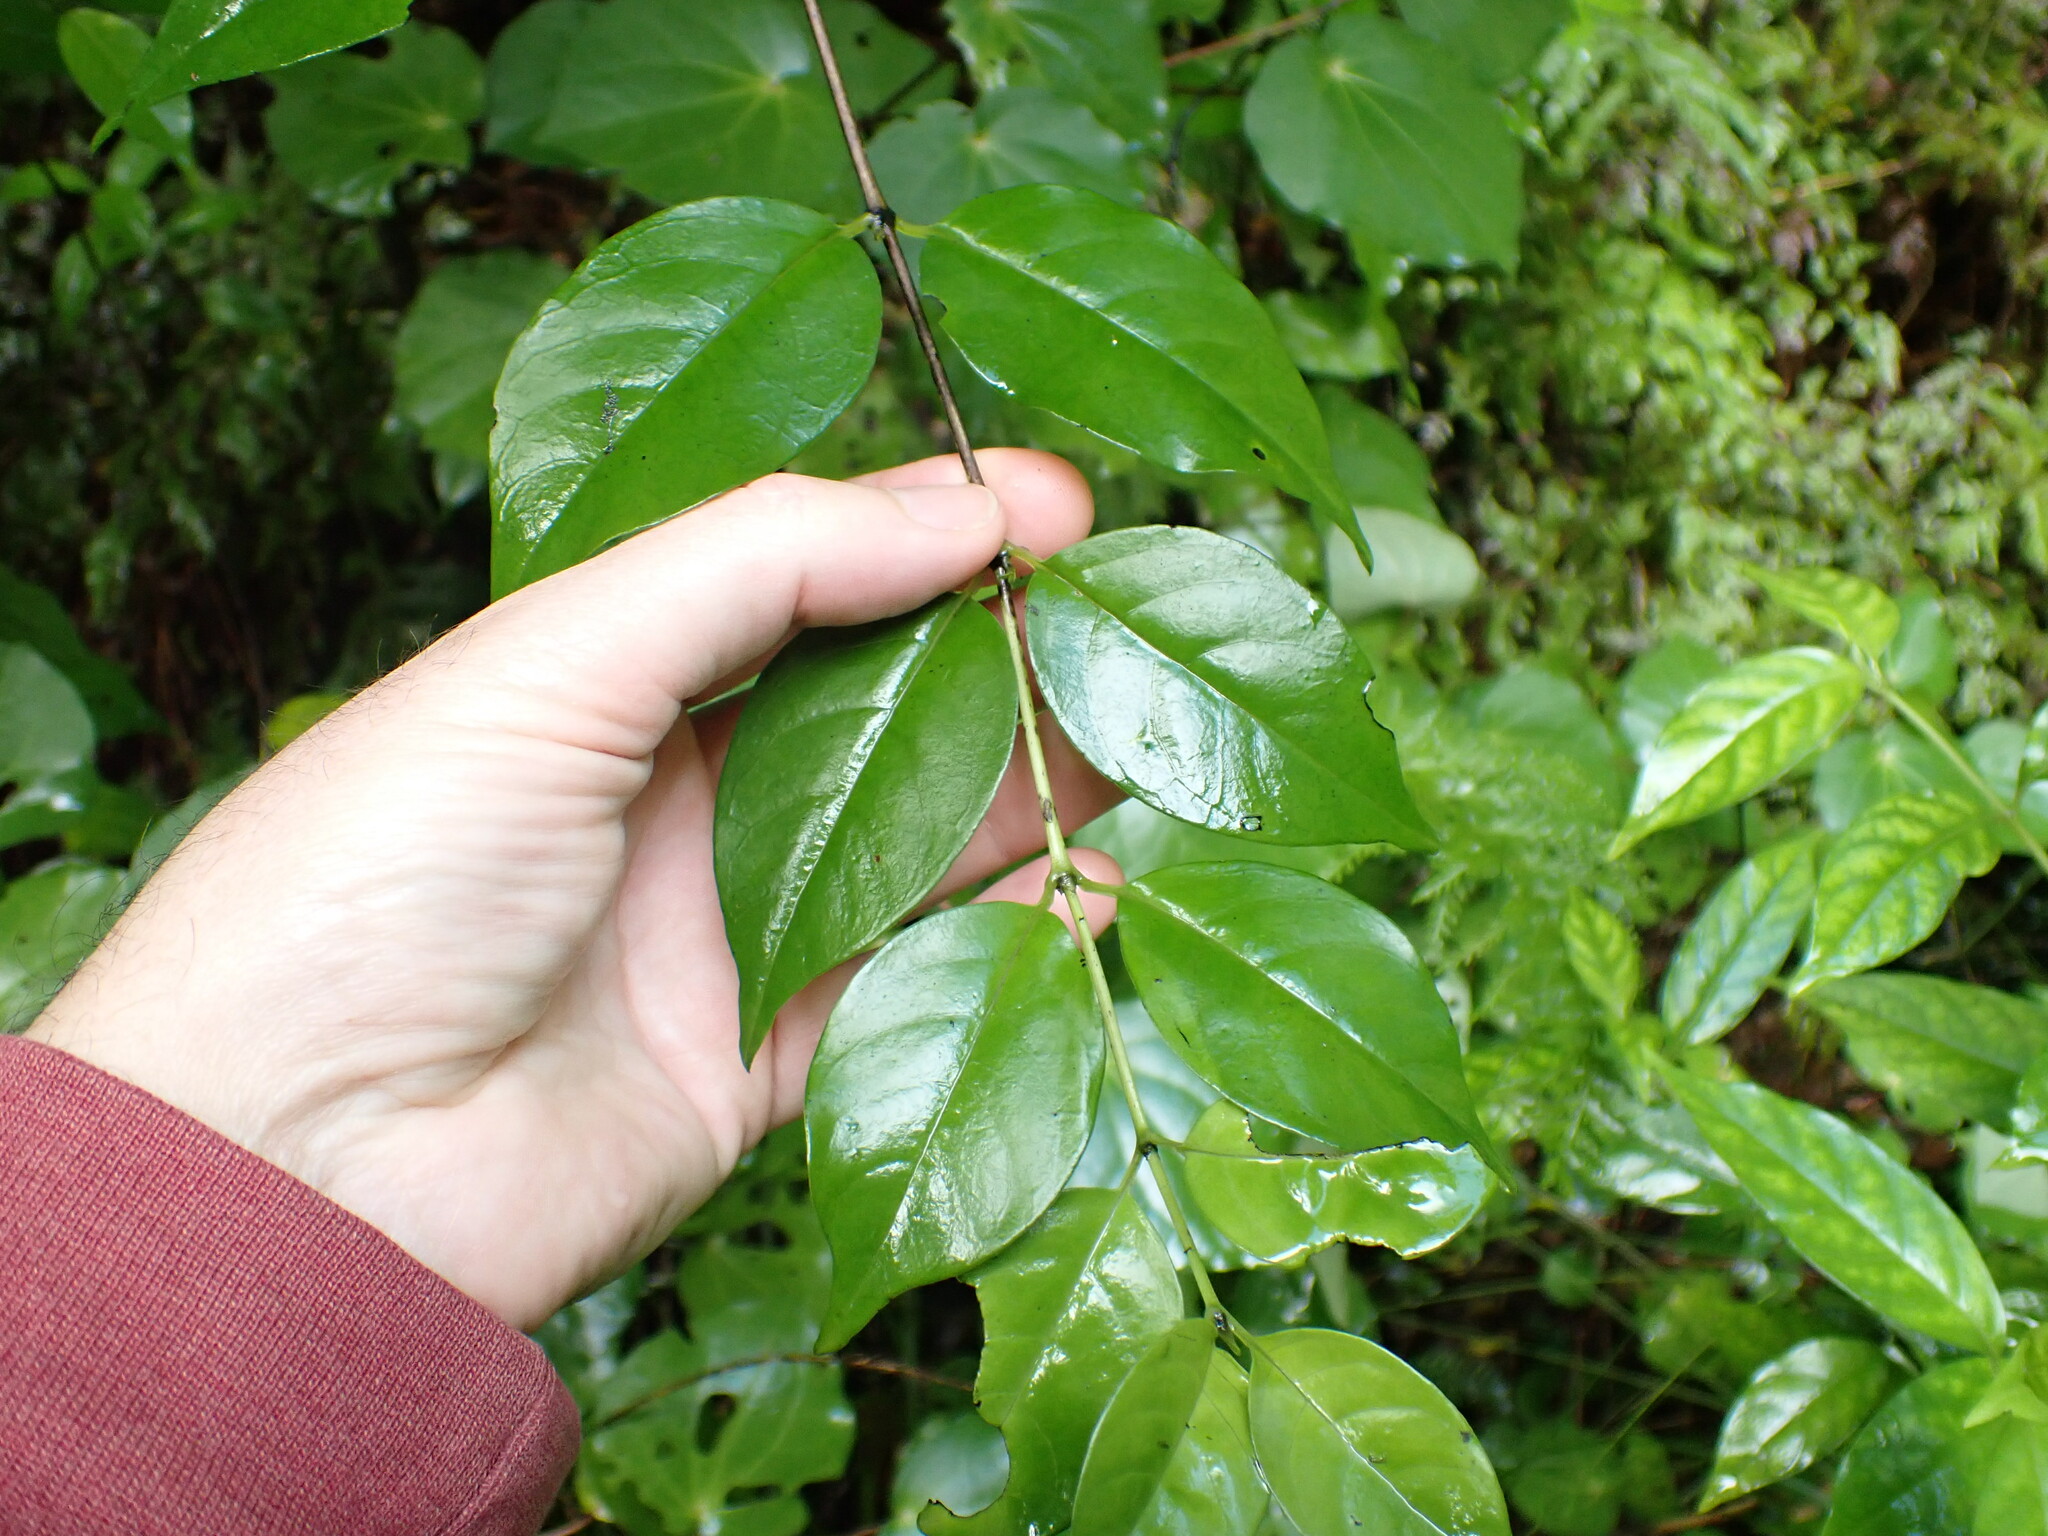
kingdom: Plantae
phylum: Tracheophyta
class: Magnoliopsida
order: Gentianales
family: Loganiaceae
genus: Geniostoma
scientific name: Geniostoma ligustrifolium
